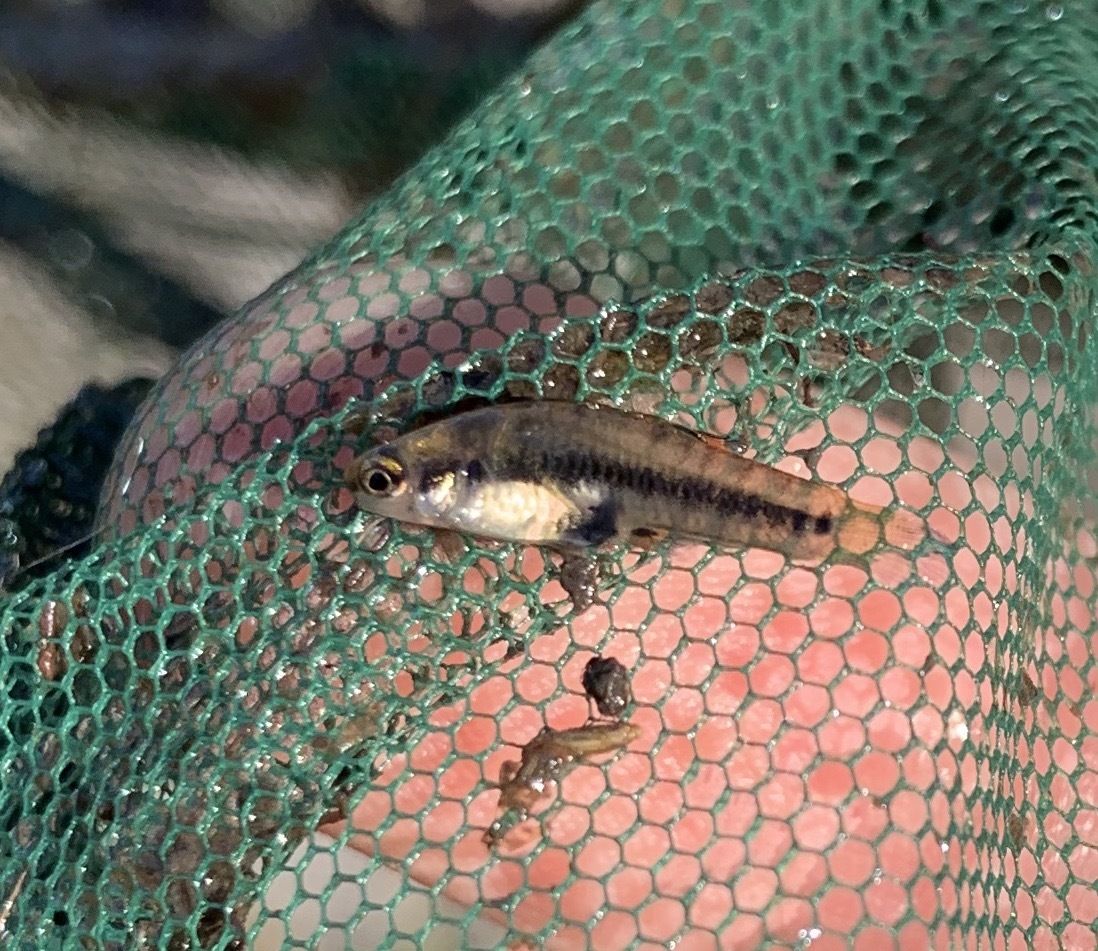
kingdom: Animalia
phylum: Chordata
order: Cyprinodontiformes
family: Poeciliidae
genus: Heterandria
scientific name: Heterandria formosa
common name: Least killifish
